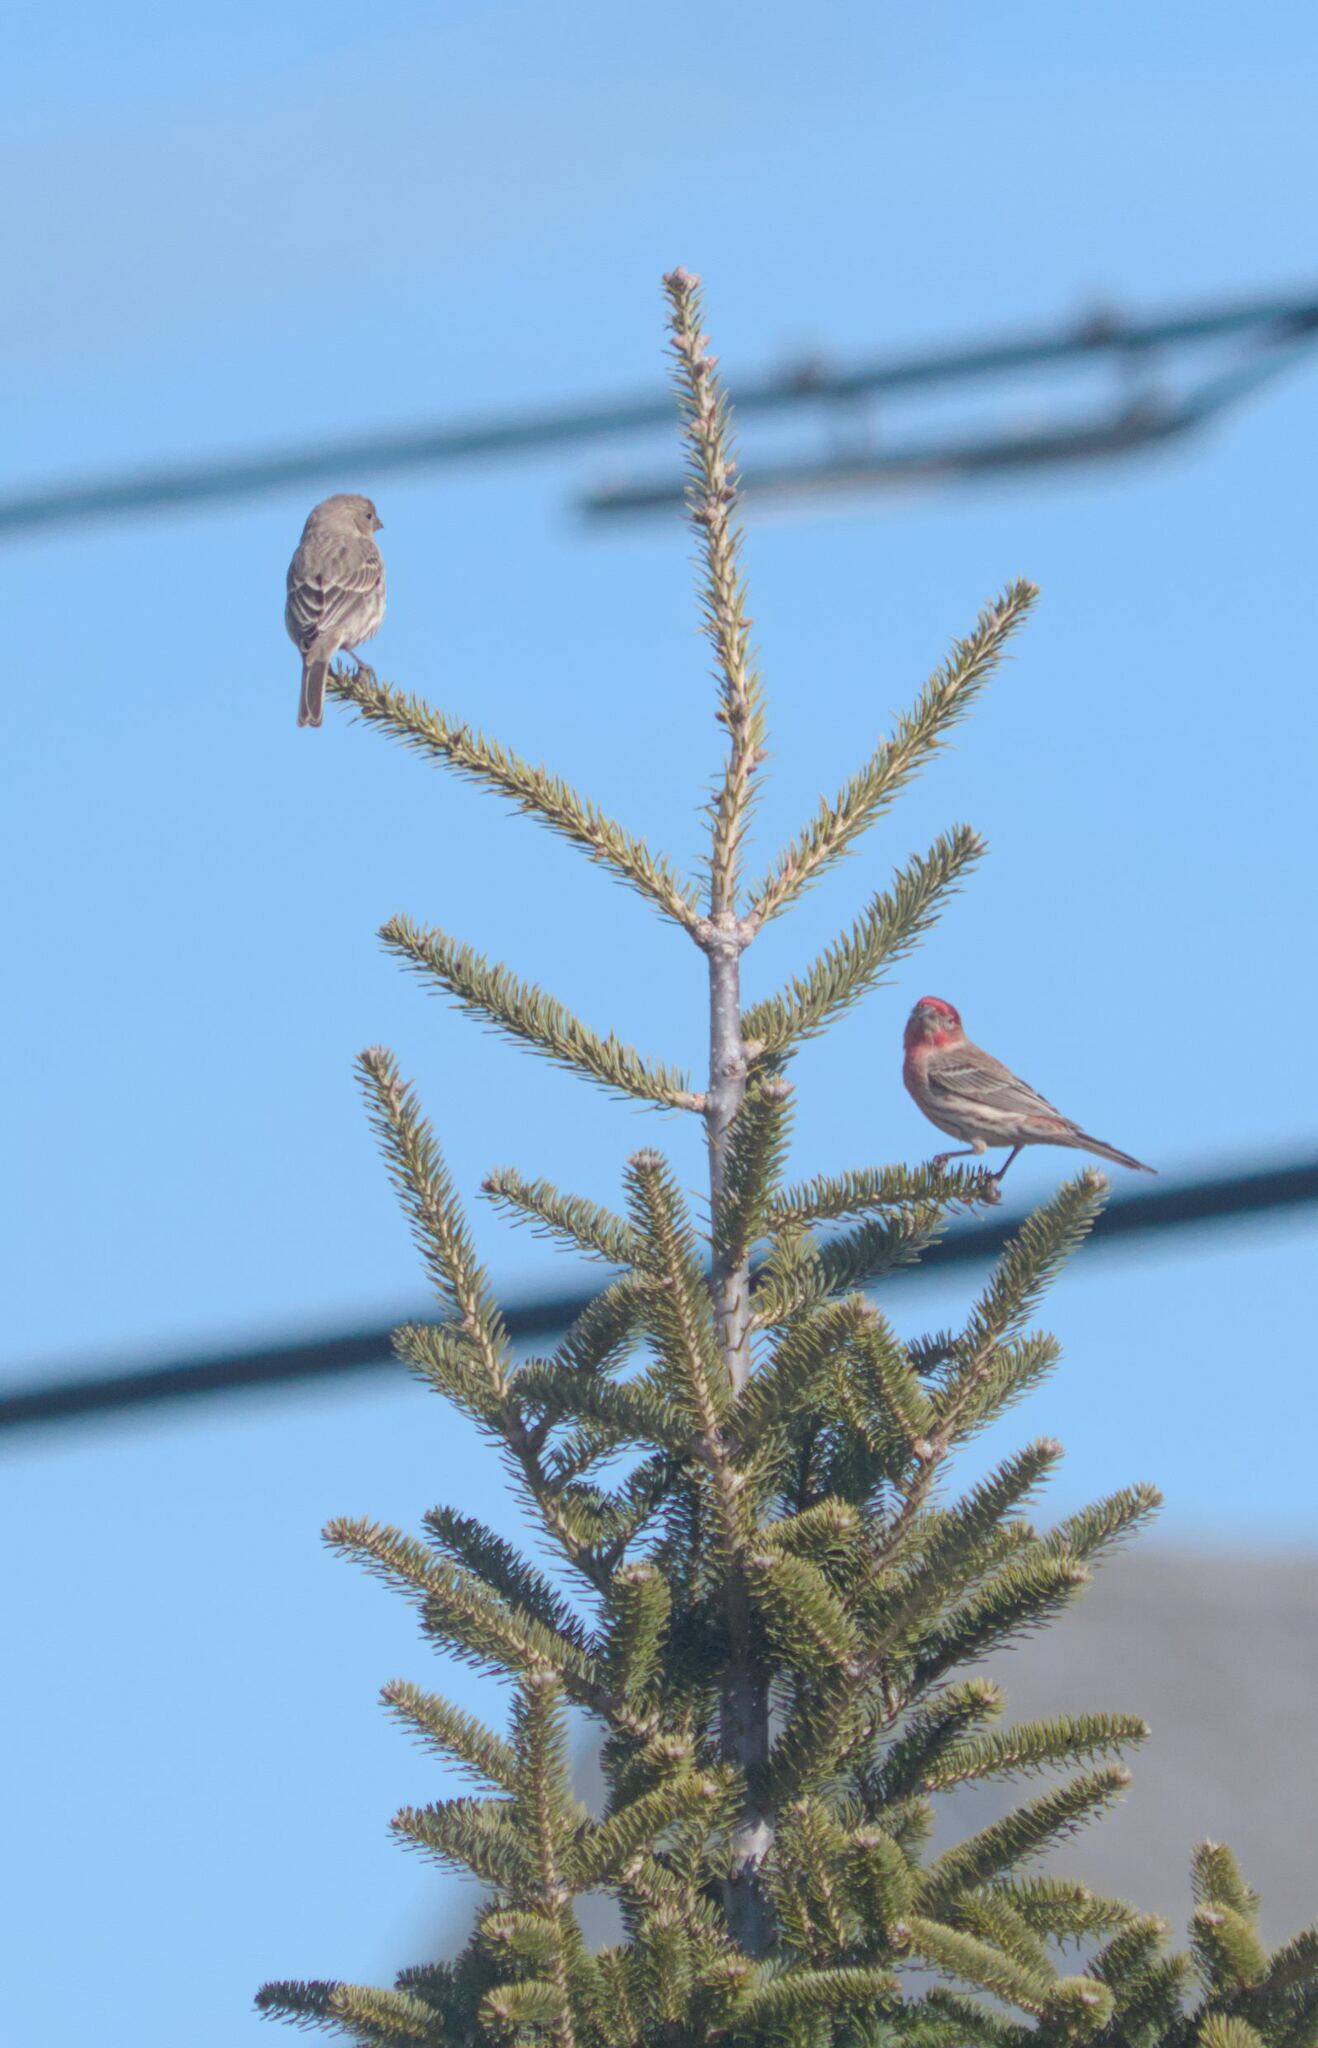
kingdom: Animalia
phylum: Chordata
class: Aves
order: Passeriformes
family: Fringillidae
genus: Haemorhous
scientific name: Haemorhous mexicanus
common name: House finch
